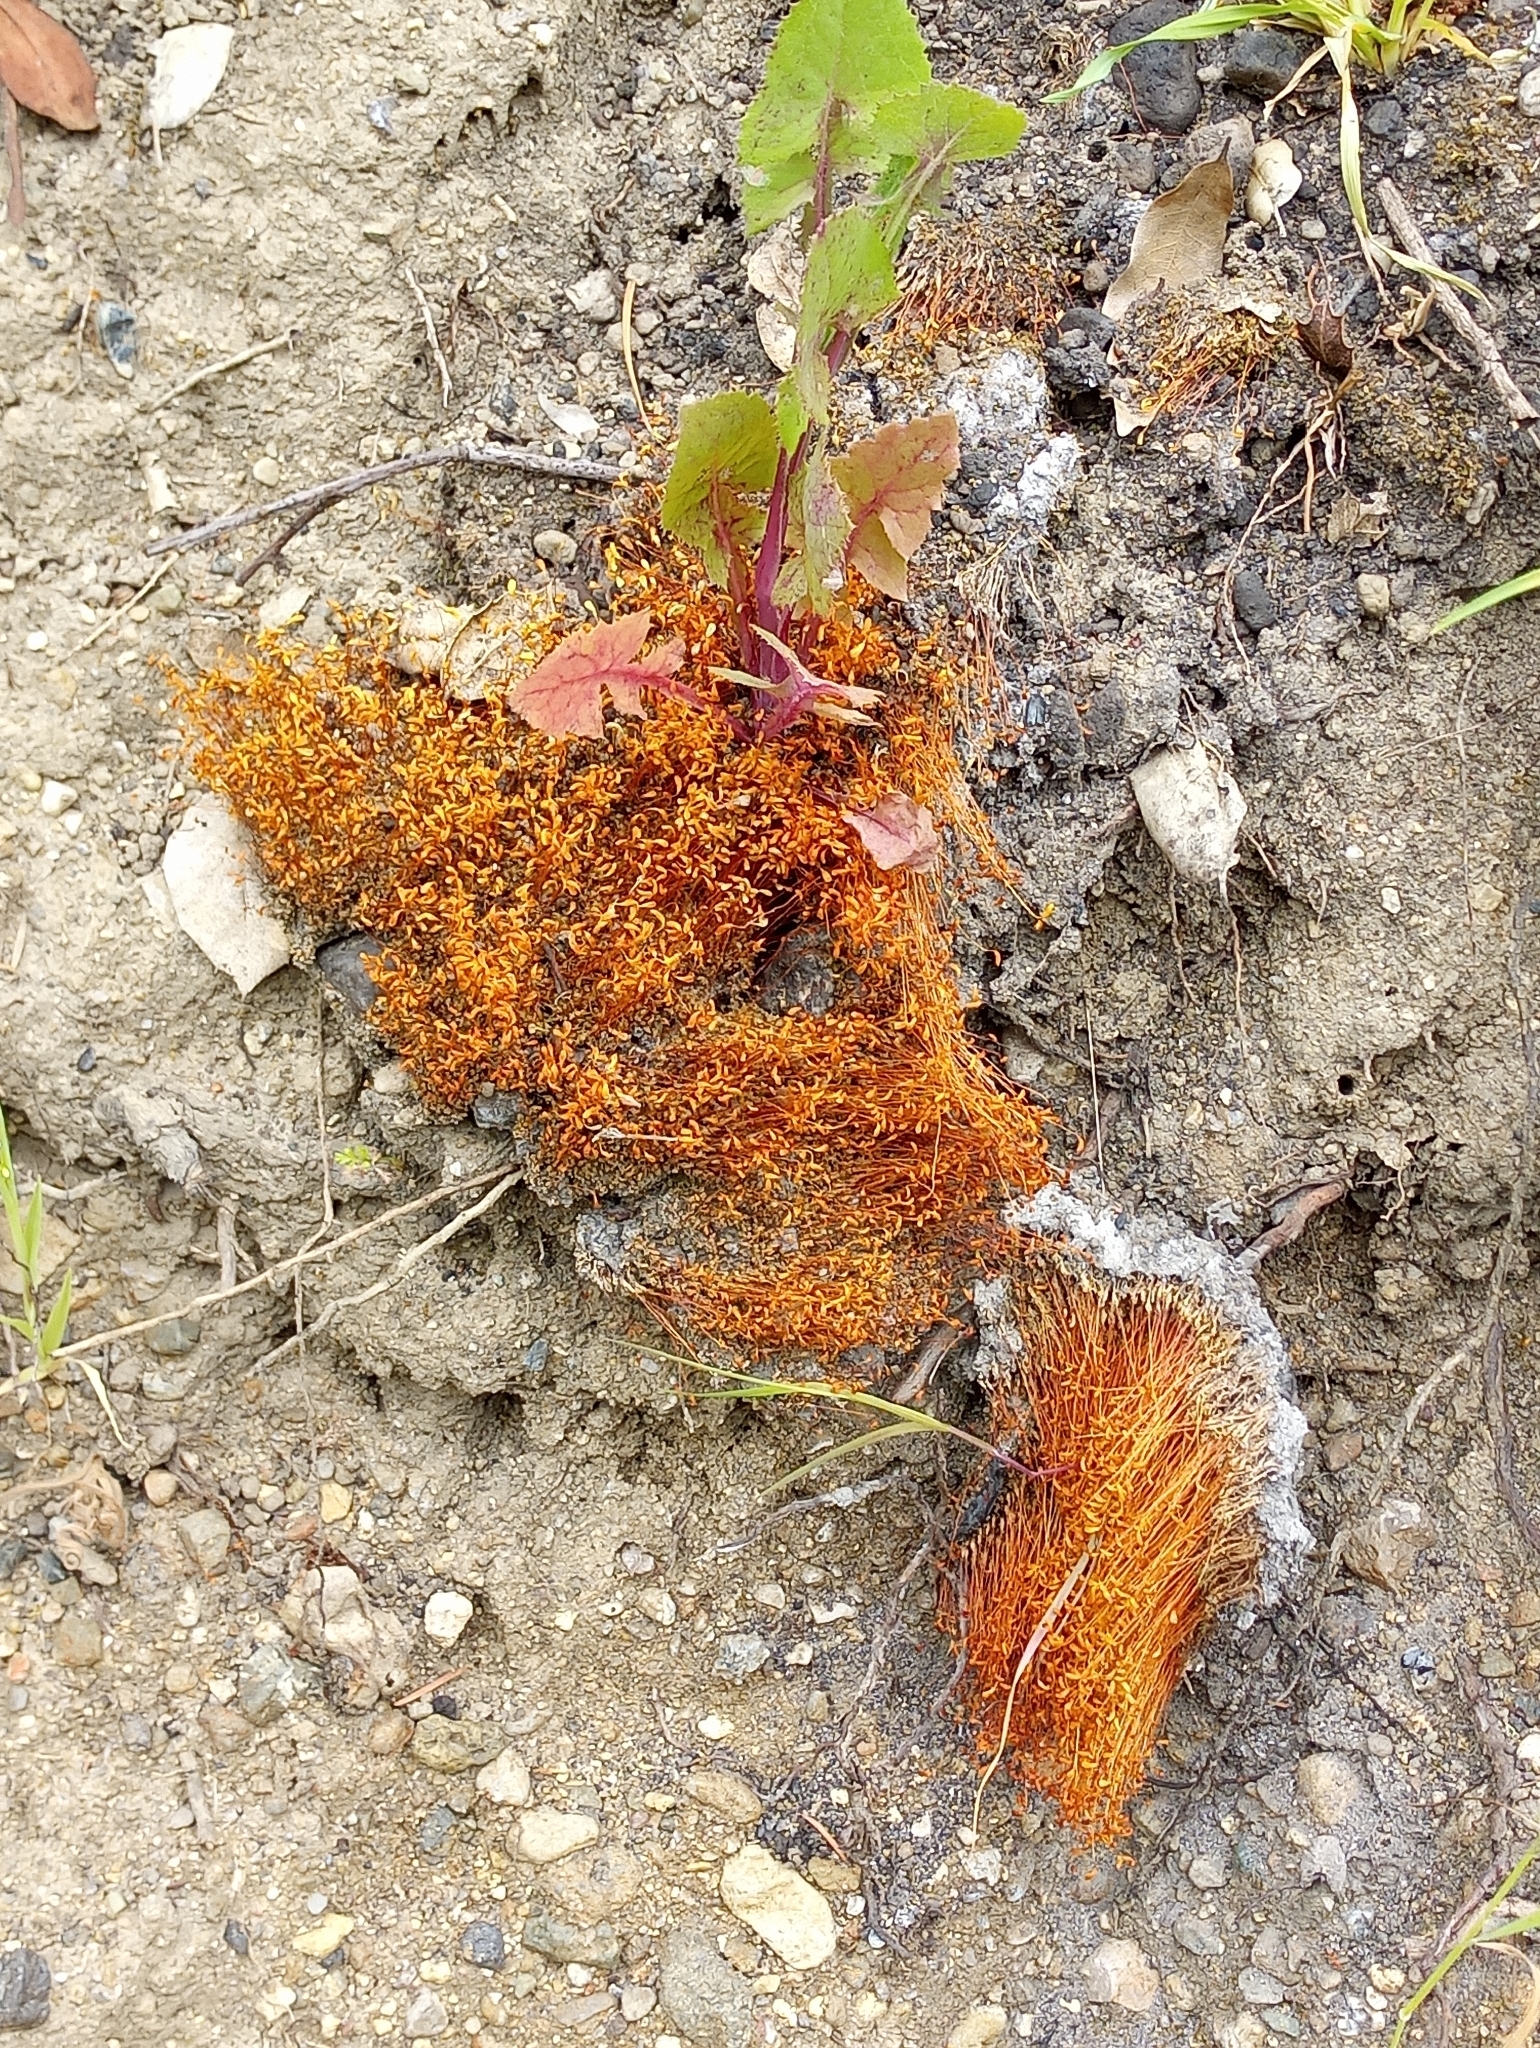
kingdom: Plantae
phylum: Bryophyta
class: Bryopsida
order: Funariales
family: Funariaceae
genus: Funaria
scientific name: Funaria hygrometrica
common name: Common cord moss
